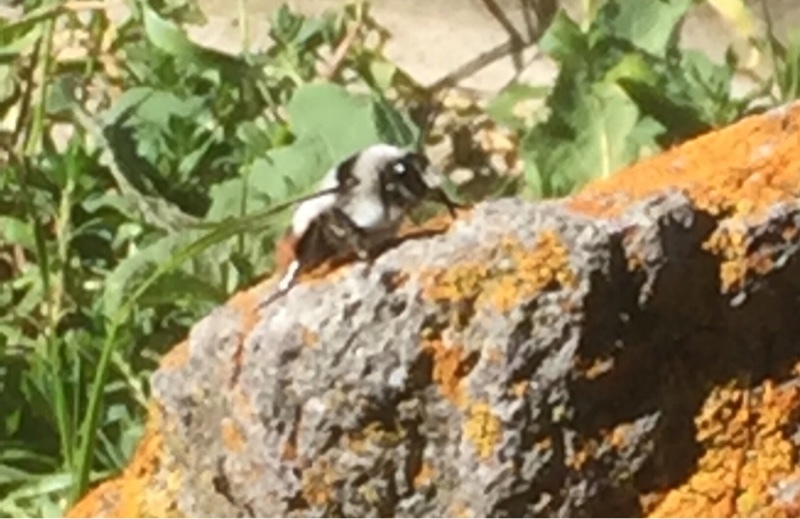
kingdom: Animalia
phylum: Arthropoda
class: Insecta
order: Hymenoptera
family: Apidae
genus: Bombus
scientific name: Bombus niveatus
